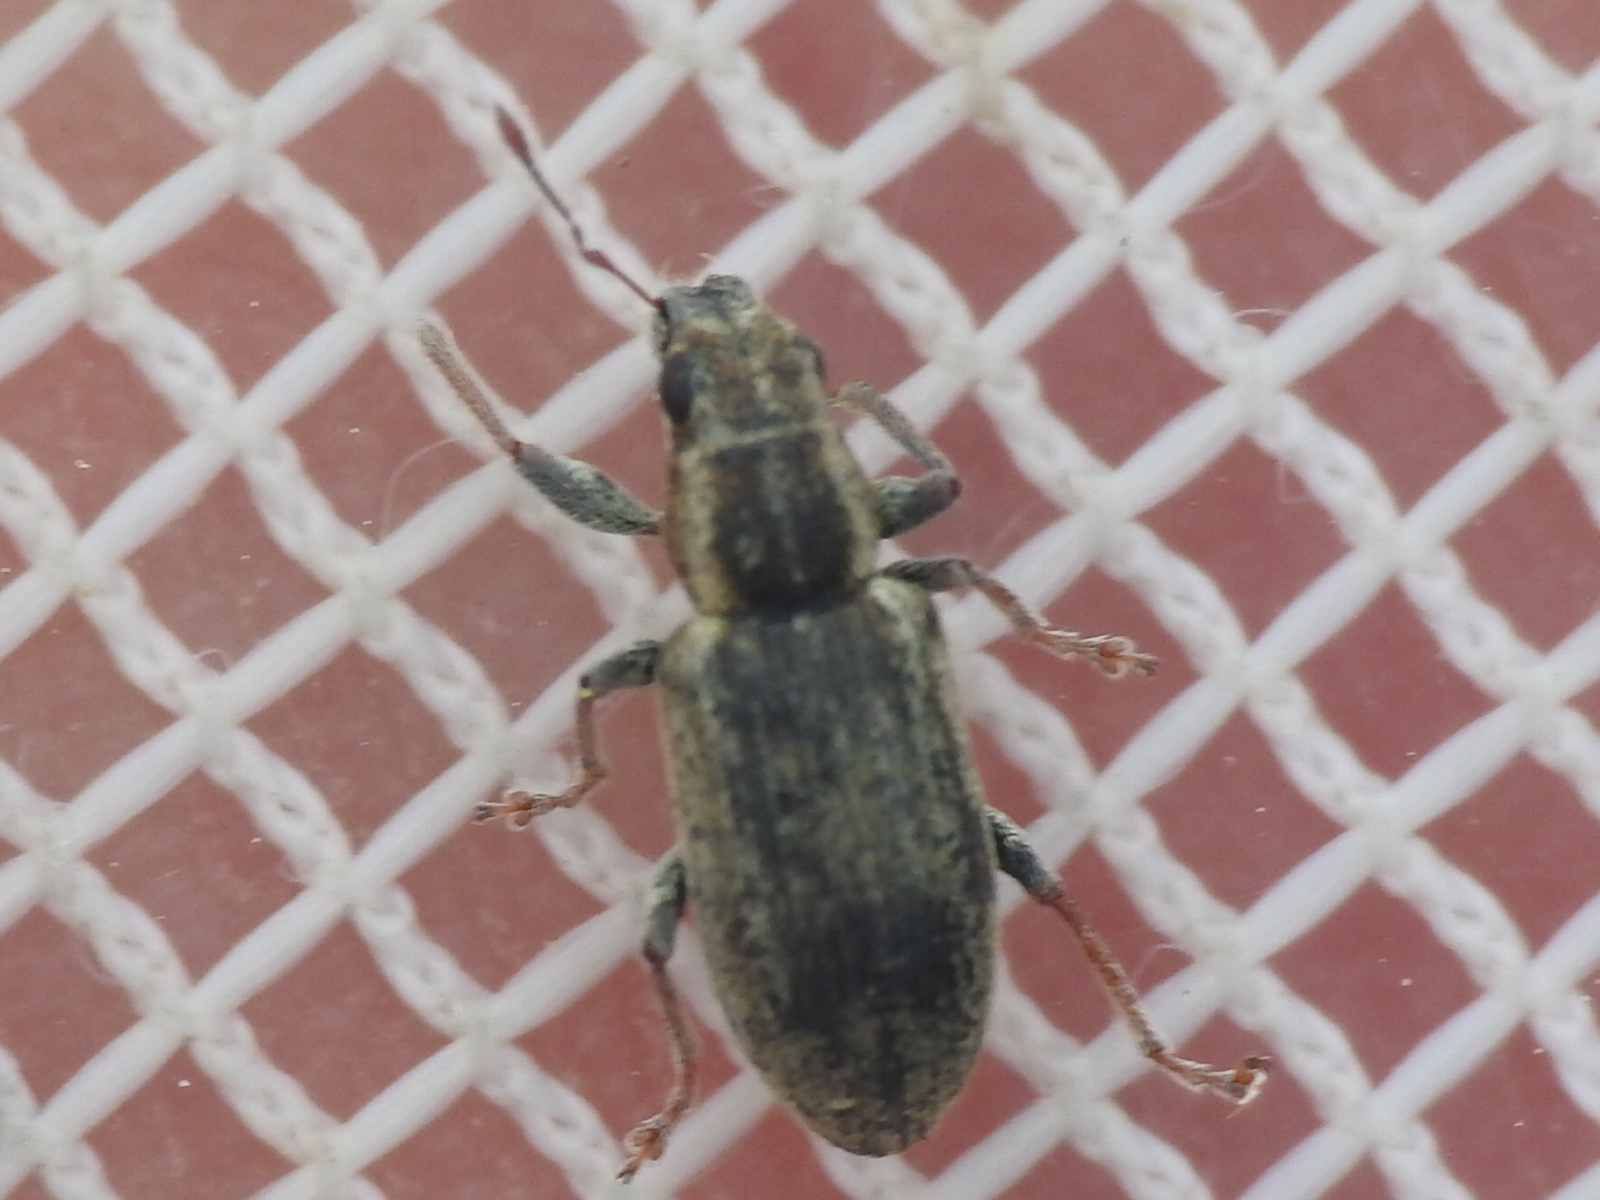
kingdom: Animalia
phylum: Arthropoda
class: Insecta
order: Coleoptera
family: Curculionidae
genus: Sitona
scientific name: Sitona lineatus
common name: Weevil
